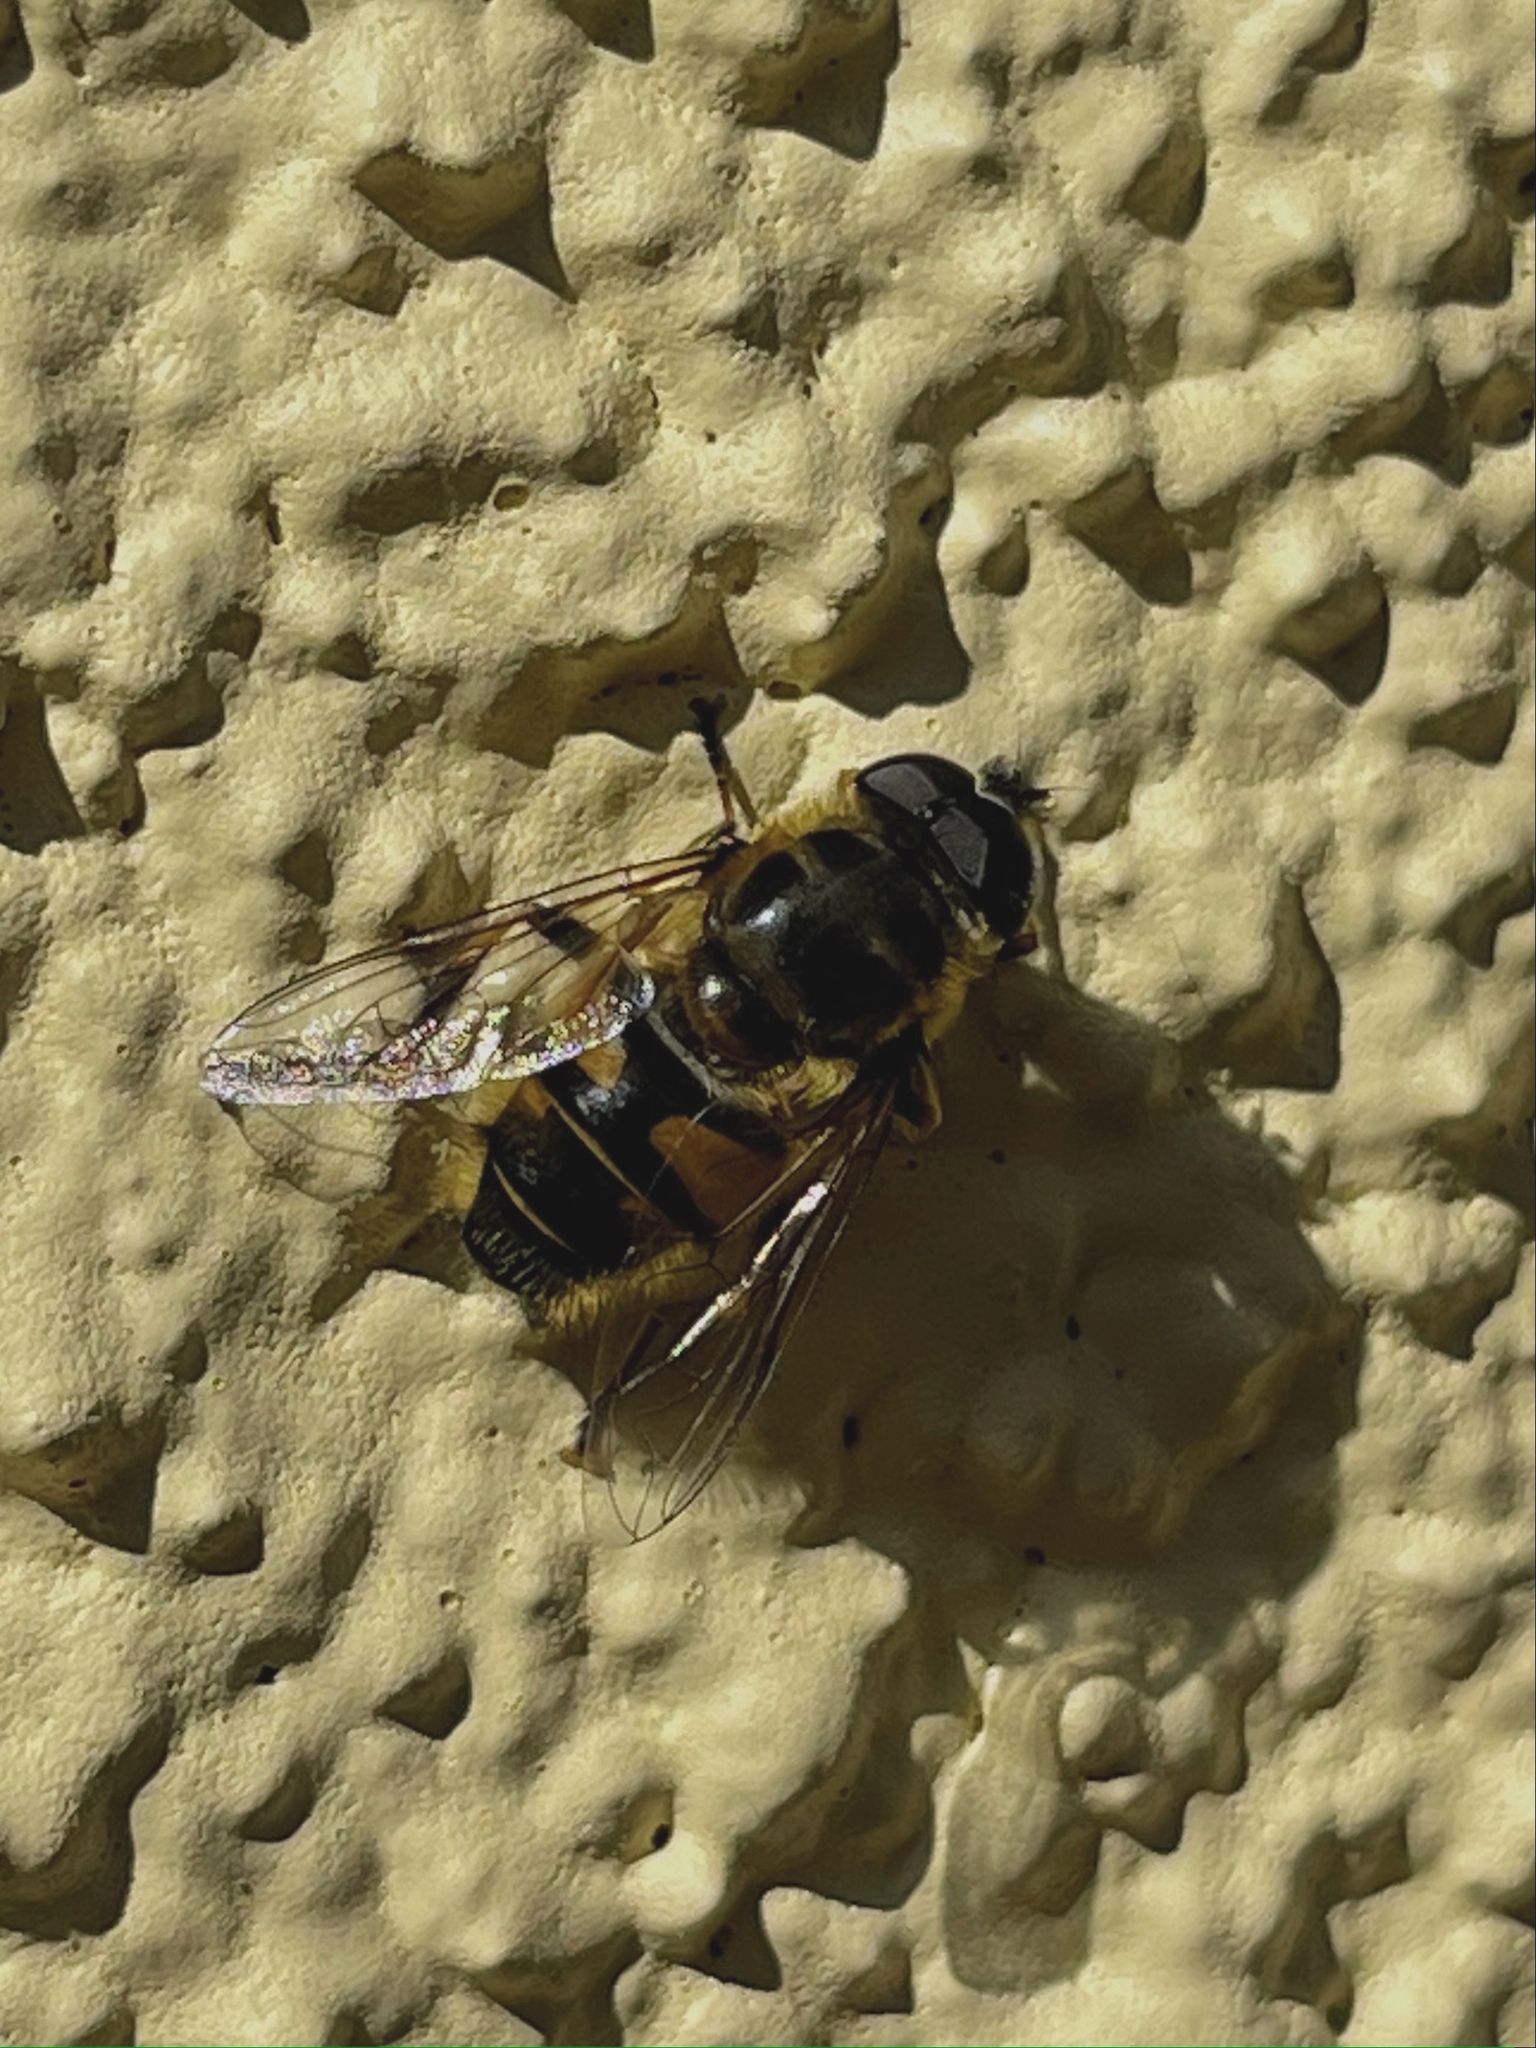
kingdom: Animalia
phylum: Arthropoda
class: Insecta
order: Diptera
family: Syrphidae
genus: Myathropa
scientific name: Myathropa florea
